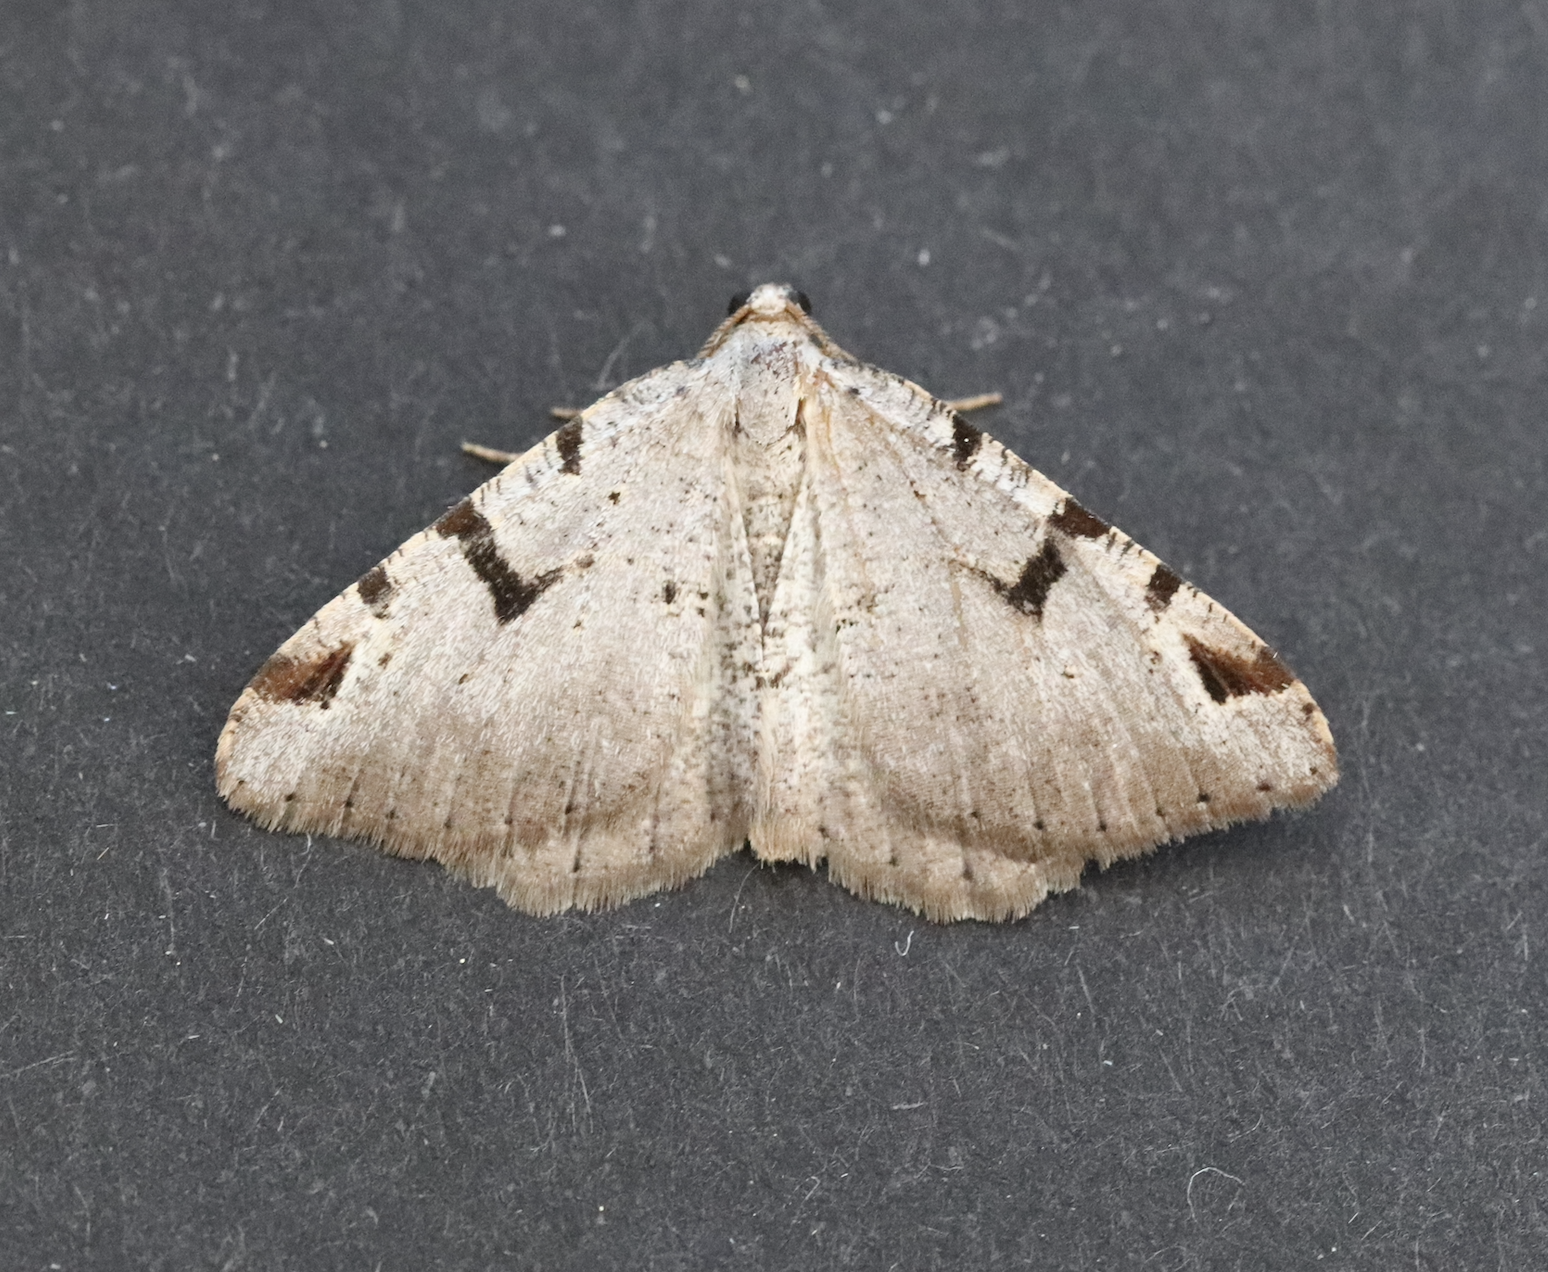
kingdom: Animalia
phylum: Arthropoda
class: Insecta
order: Lepidoptera
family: Geometridae
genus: Macaria
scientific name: Macaria wauaria
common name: V-moth
